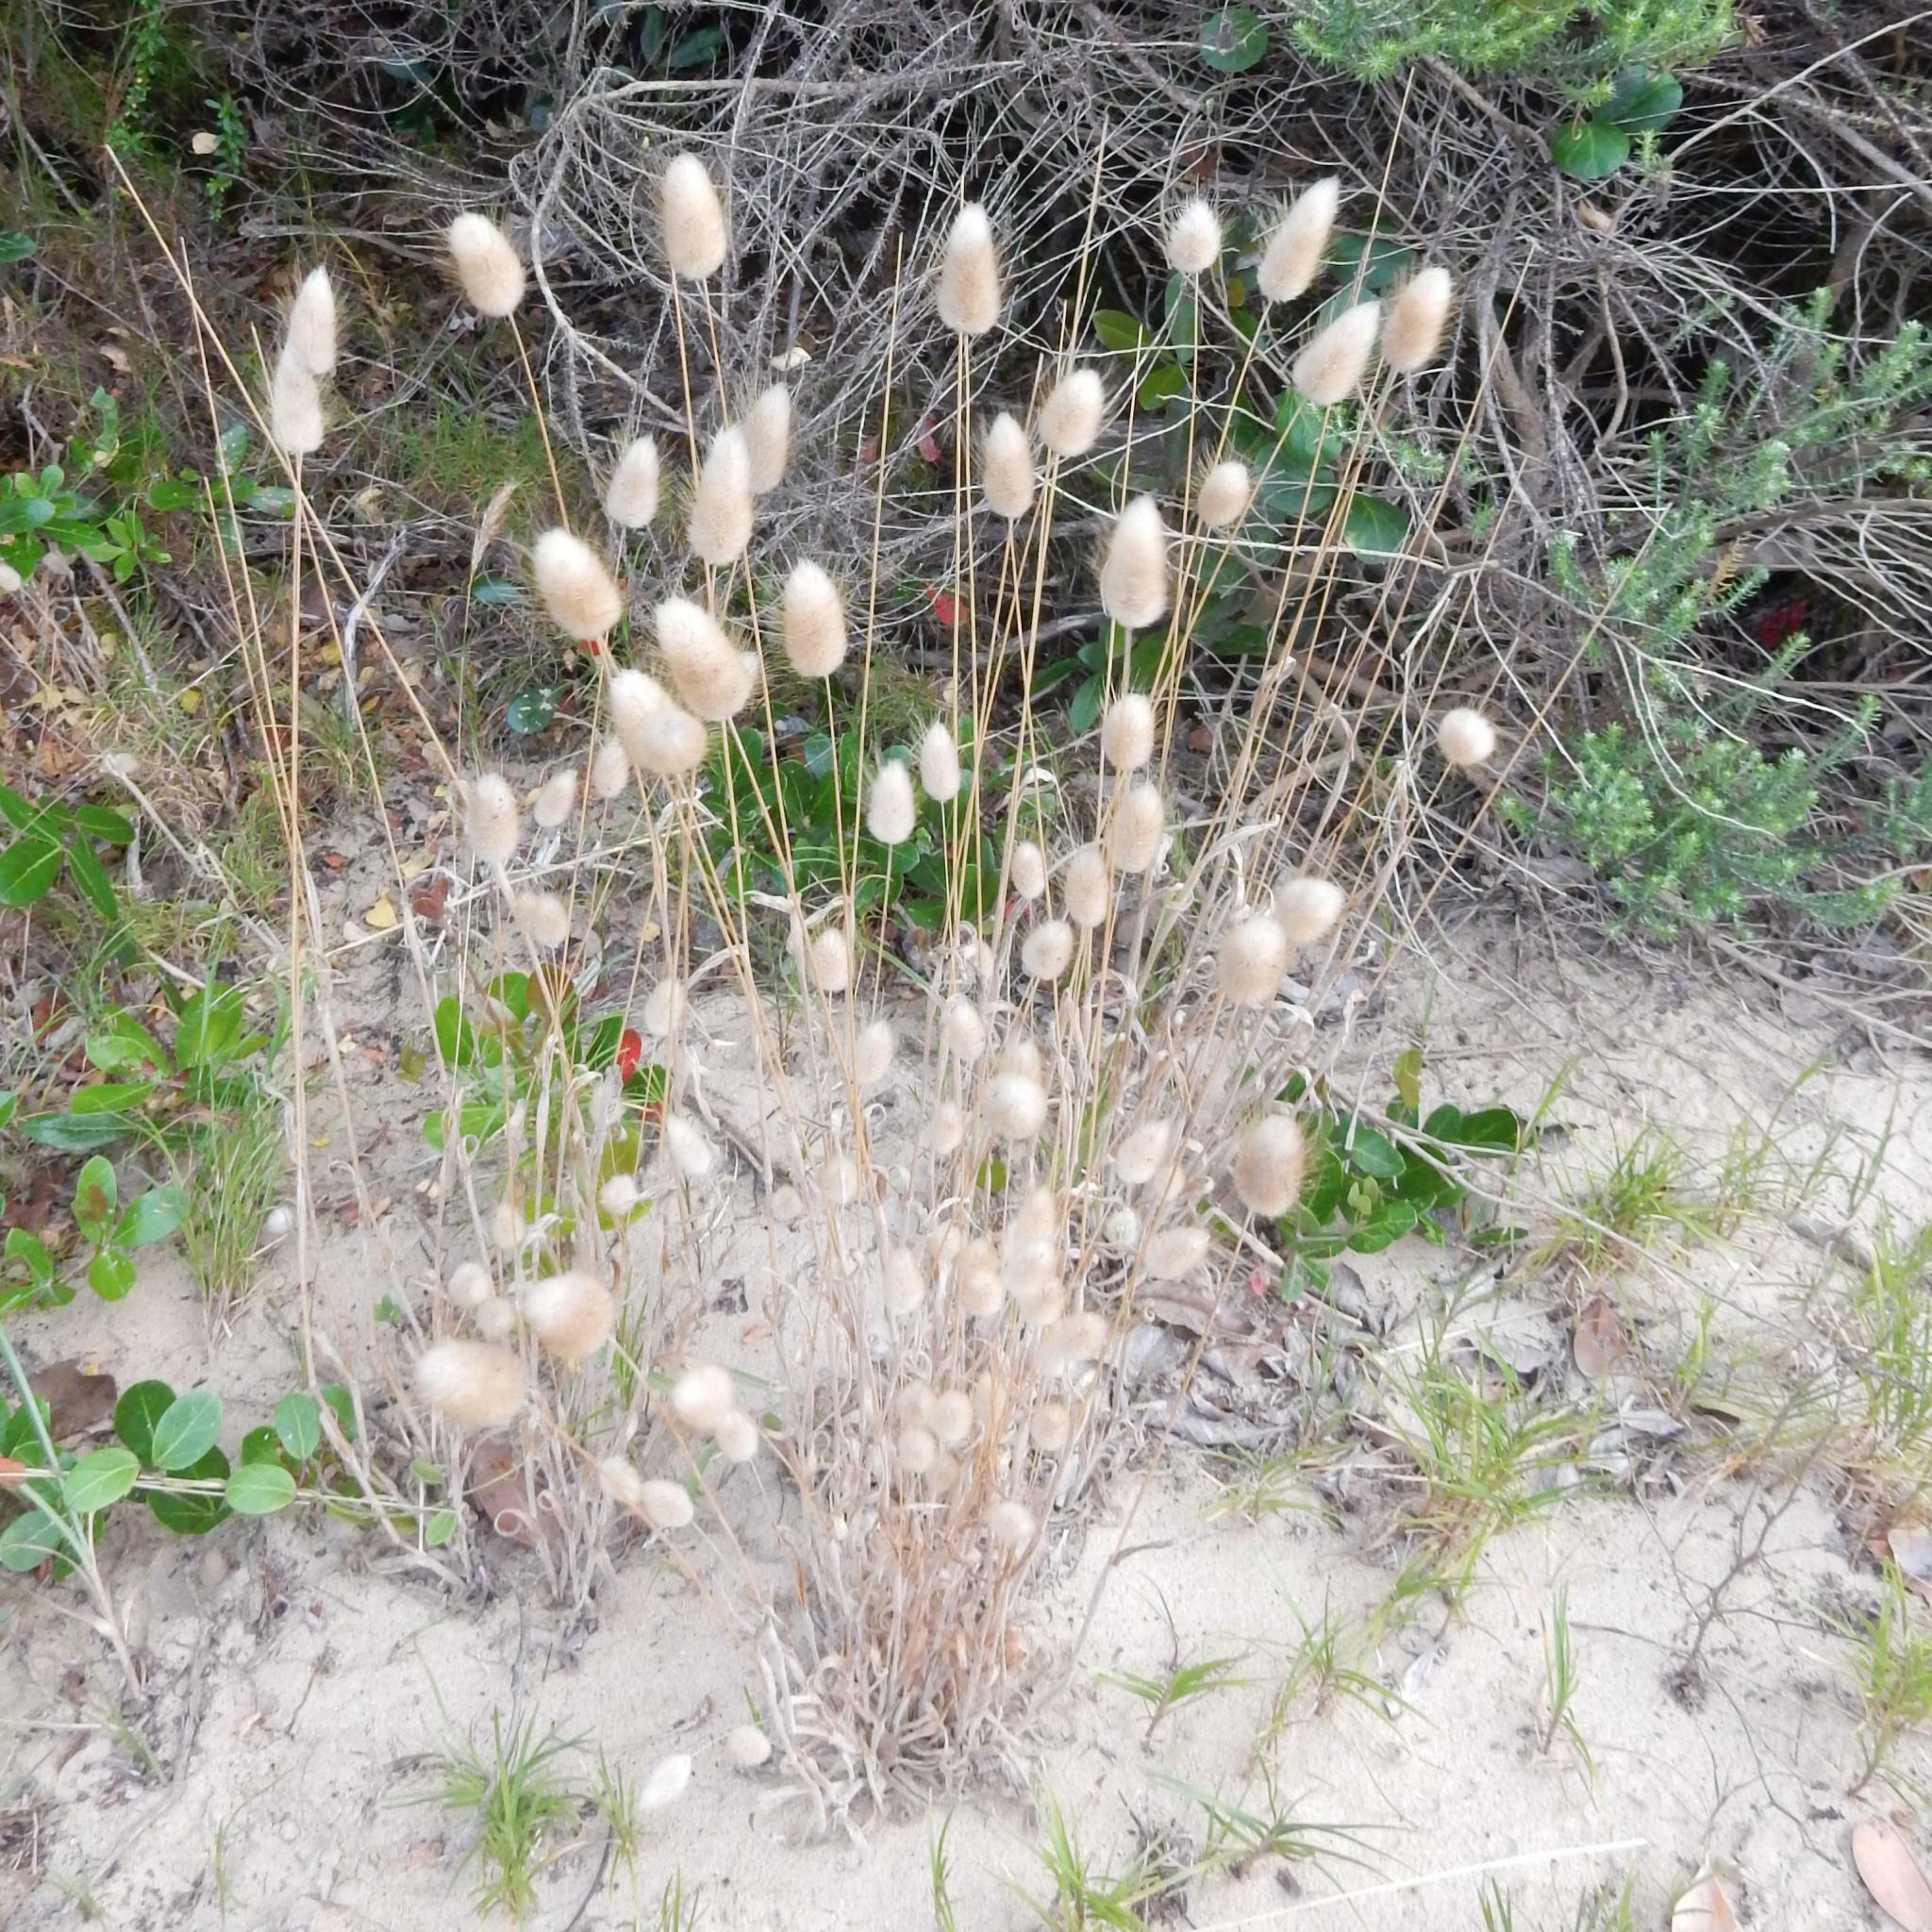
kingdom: Plantae
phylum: Tracheophyta
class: Liliopsida
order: Poales
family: Poaceae
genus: Lagurus
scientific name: Lagurus ovatus
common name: Hare's-tail
